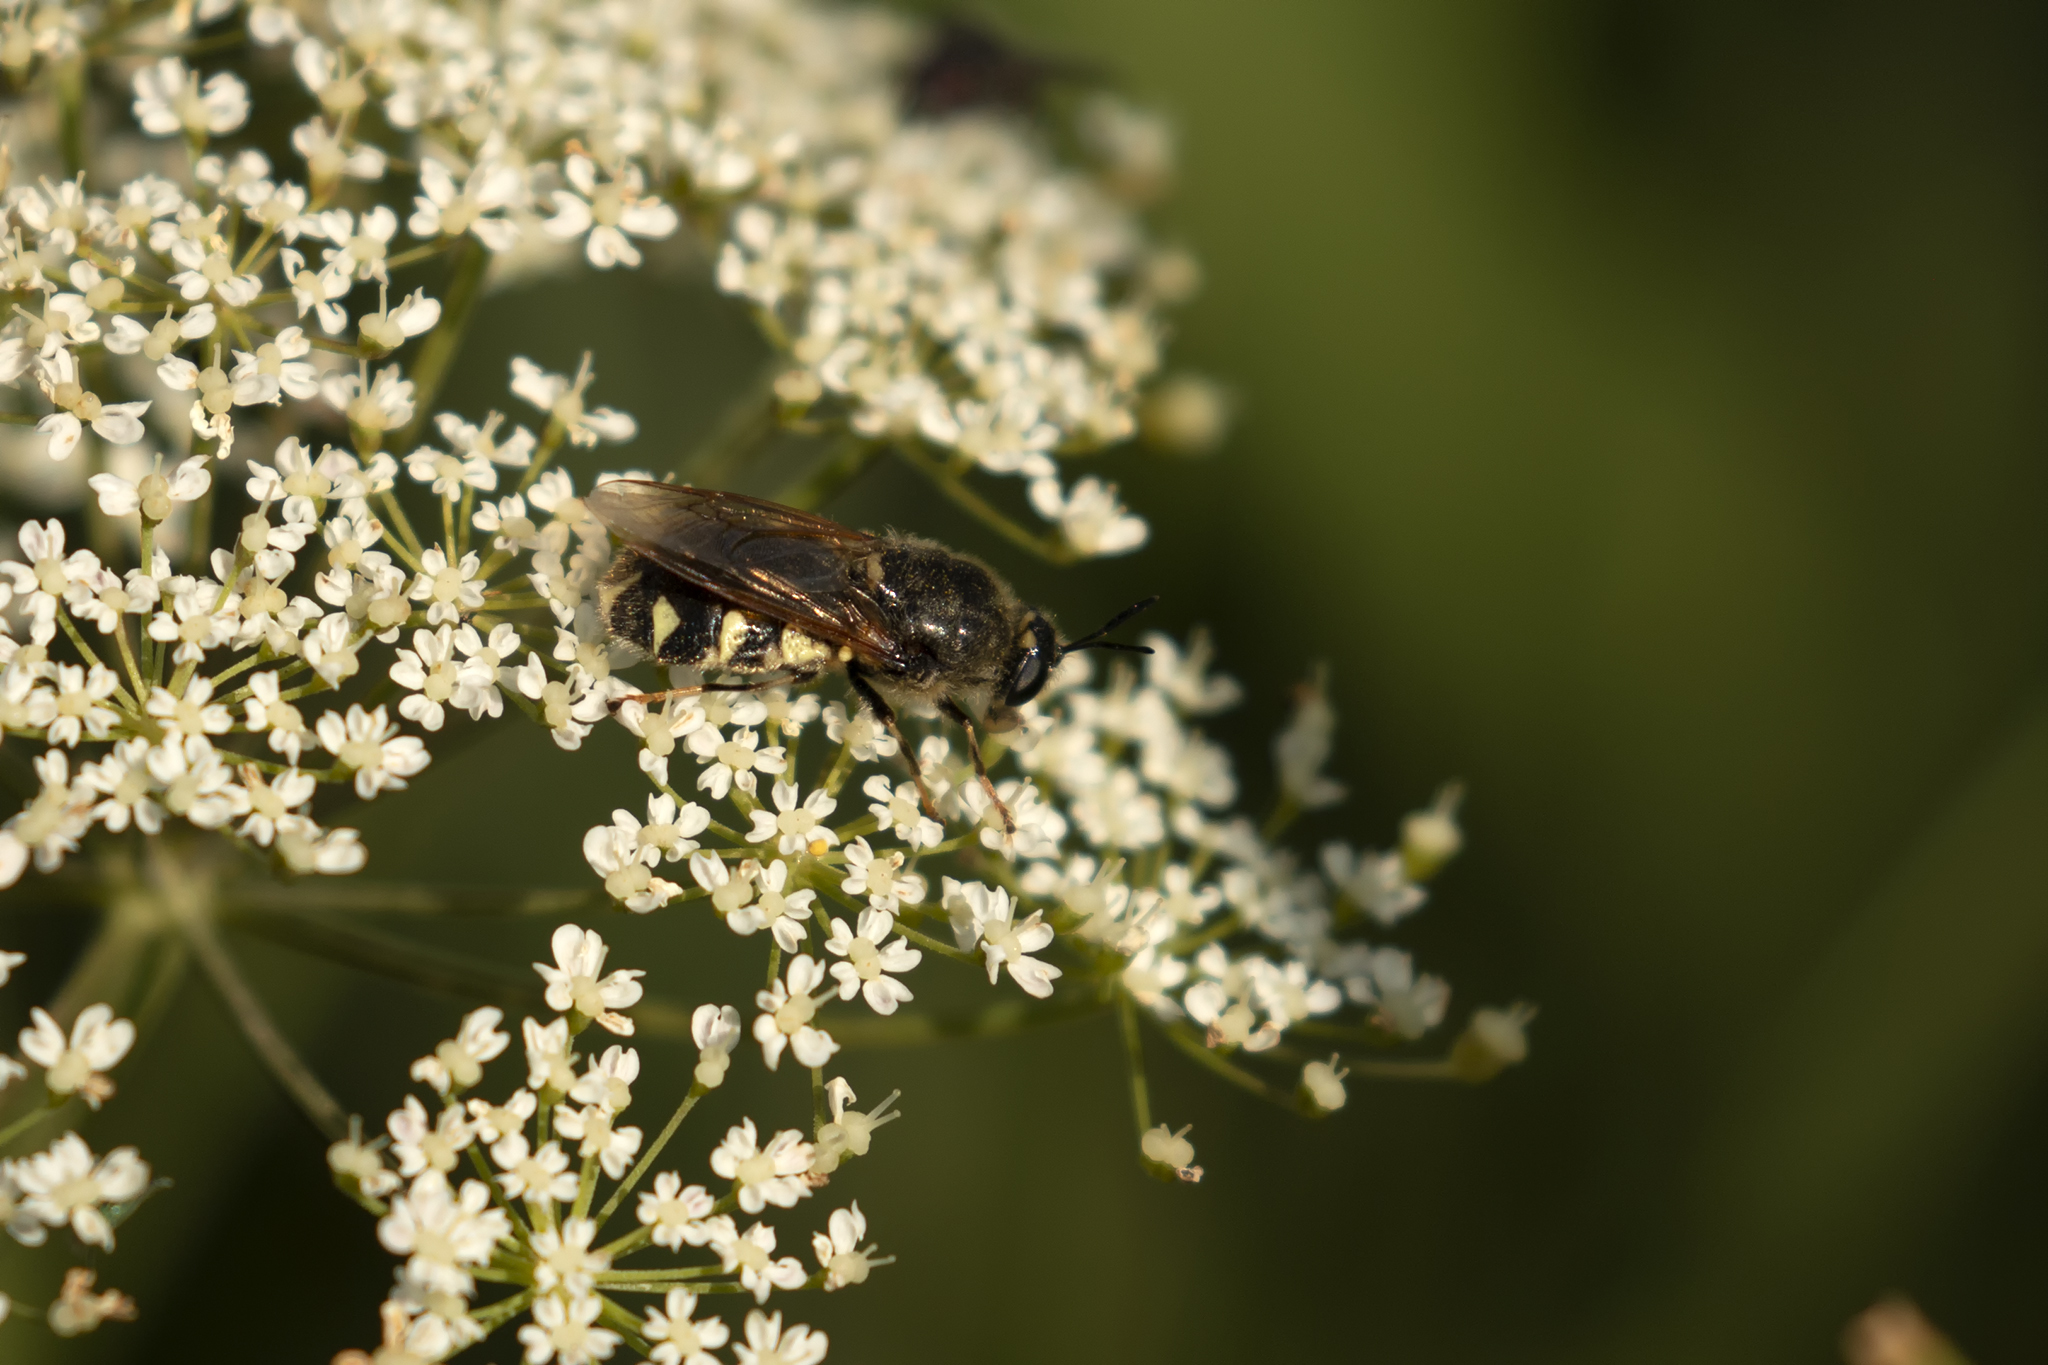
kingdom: Animalia
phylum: Arthropoda
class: Insecta
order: Diptera
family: Stratiomyidae
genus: Stratiomys
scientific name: Stratiomys singularior
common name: Flecked general
